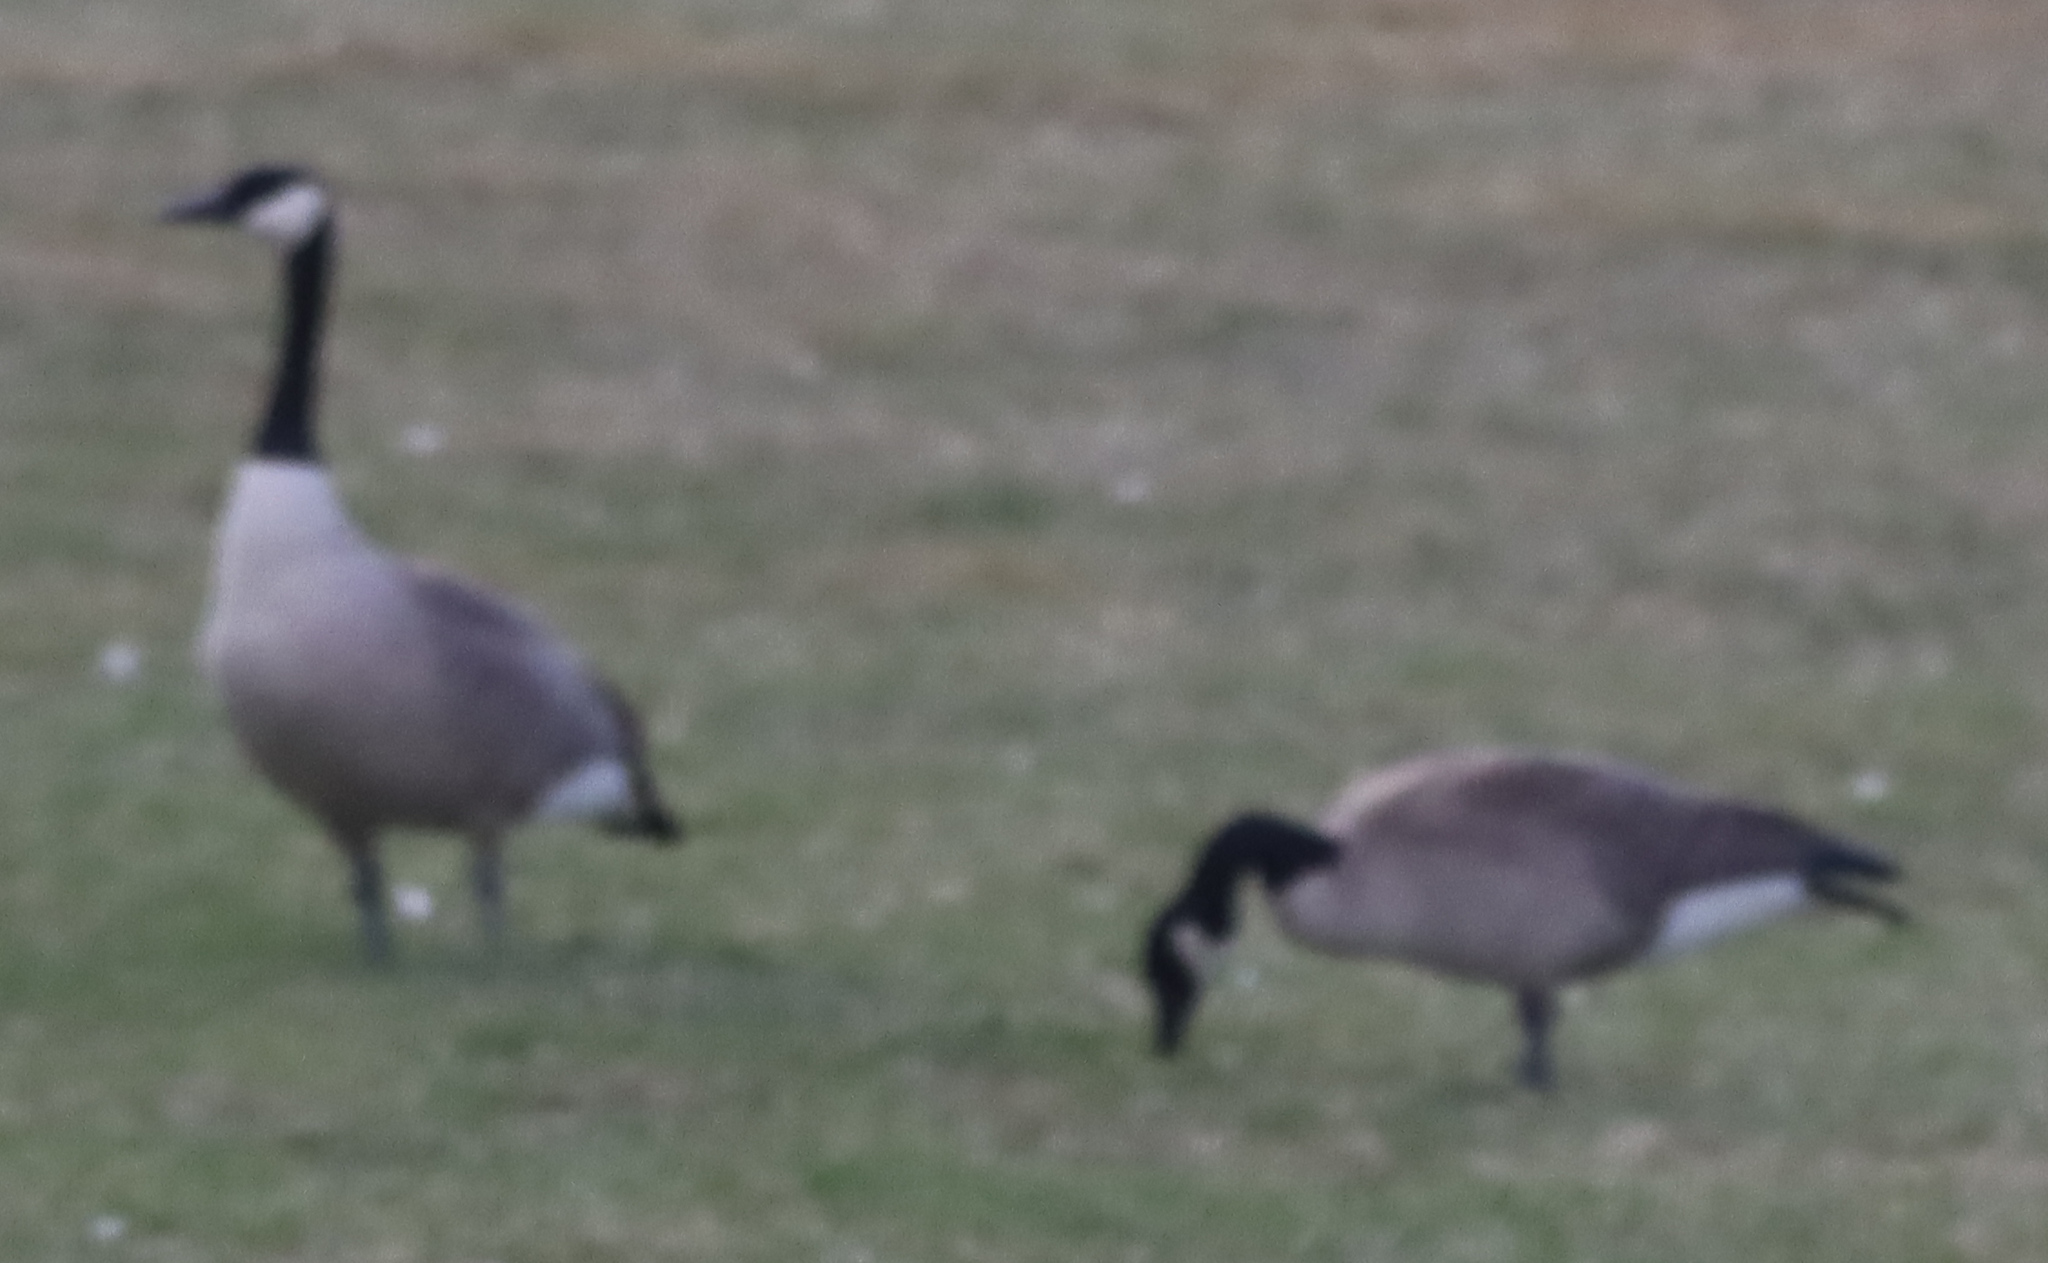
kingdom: Animalia
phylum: Chordata
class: Aves
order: Anseriformes
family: Anatidae
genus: Branta
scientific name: Branta canadensis
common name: Canada goose
